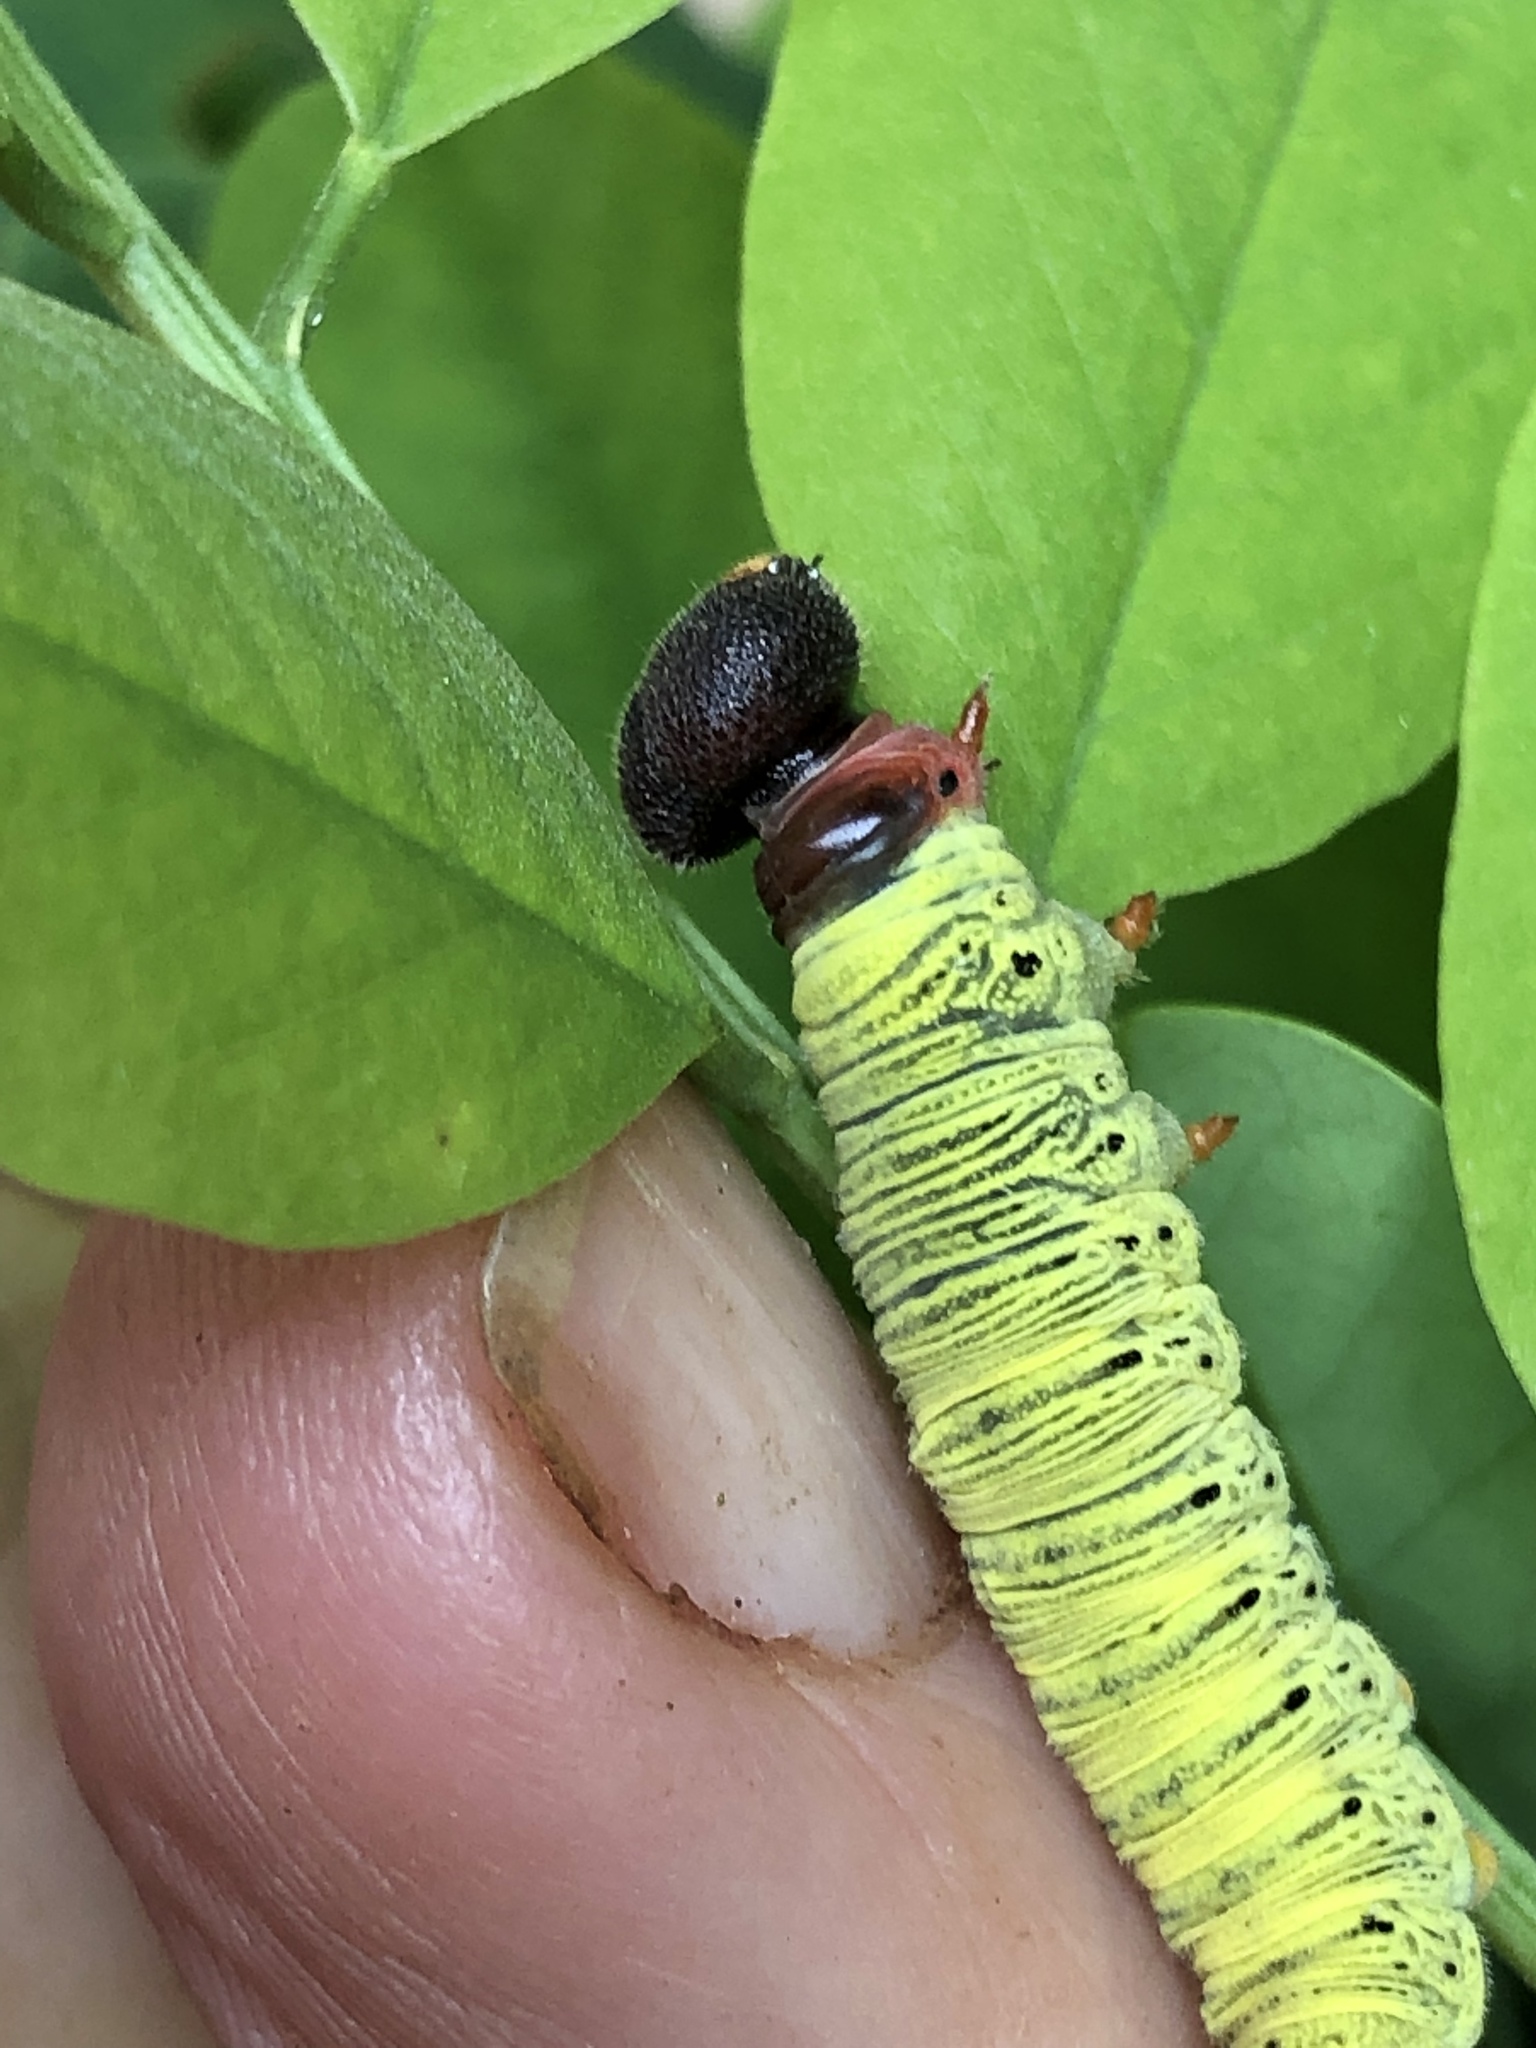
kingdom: Animalia
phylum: Arthropoda
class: Insecta
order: Lepidoptera
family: Hesperiidae
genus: Epargyreus
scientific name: Epargyreus clarus
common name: Silver-spotted skipper
